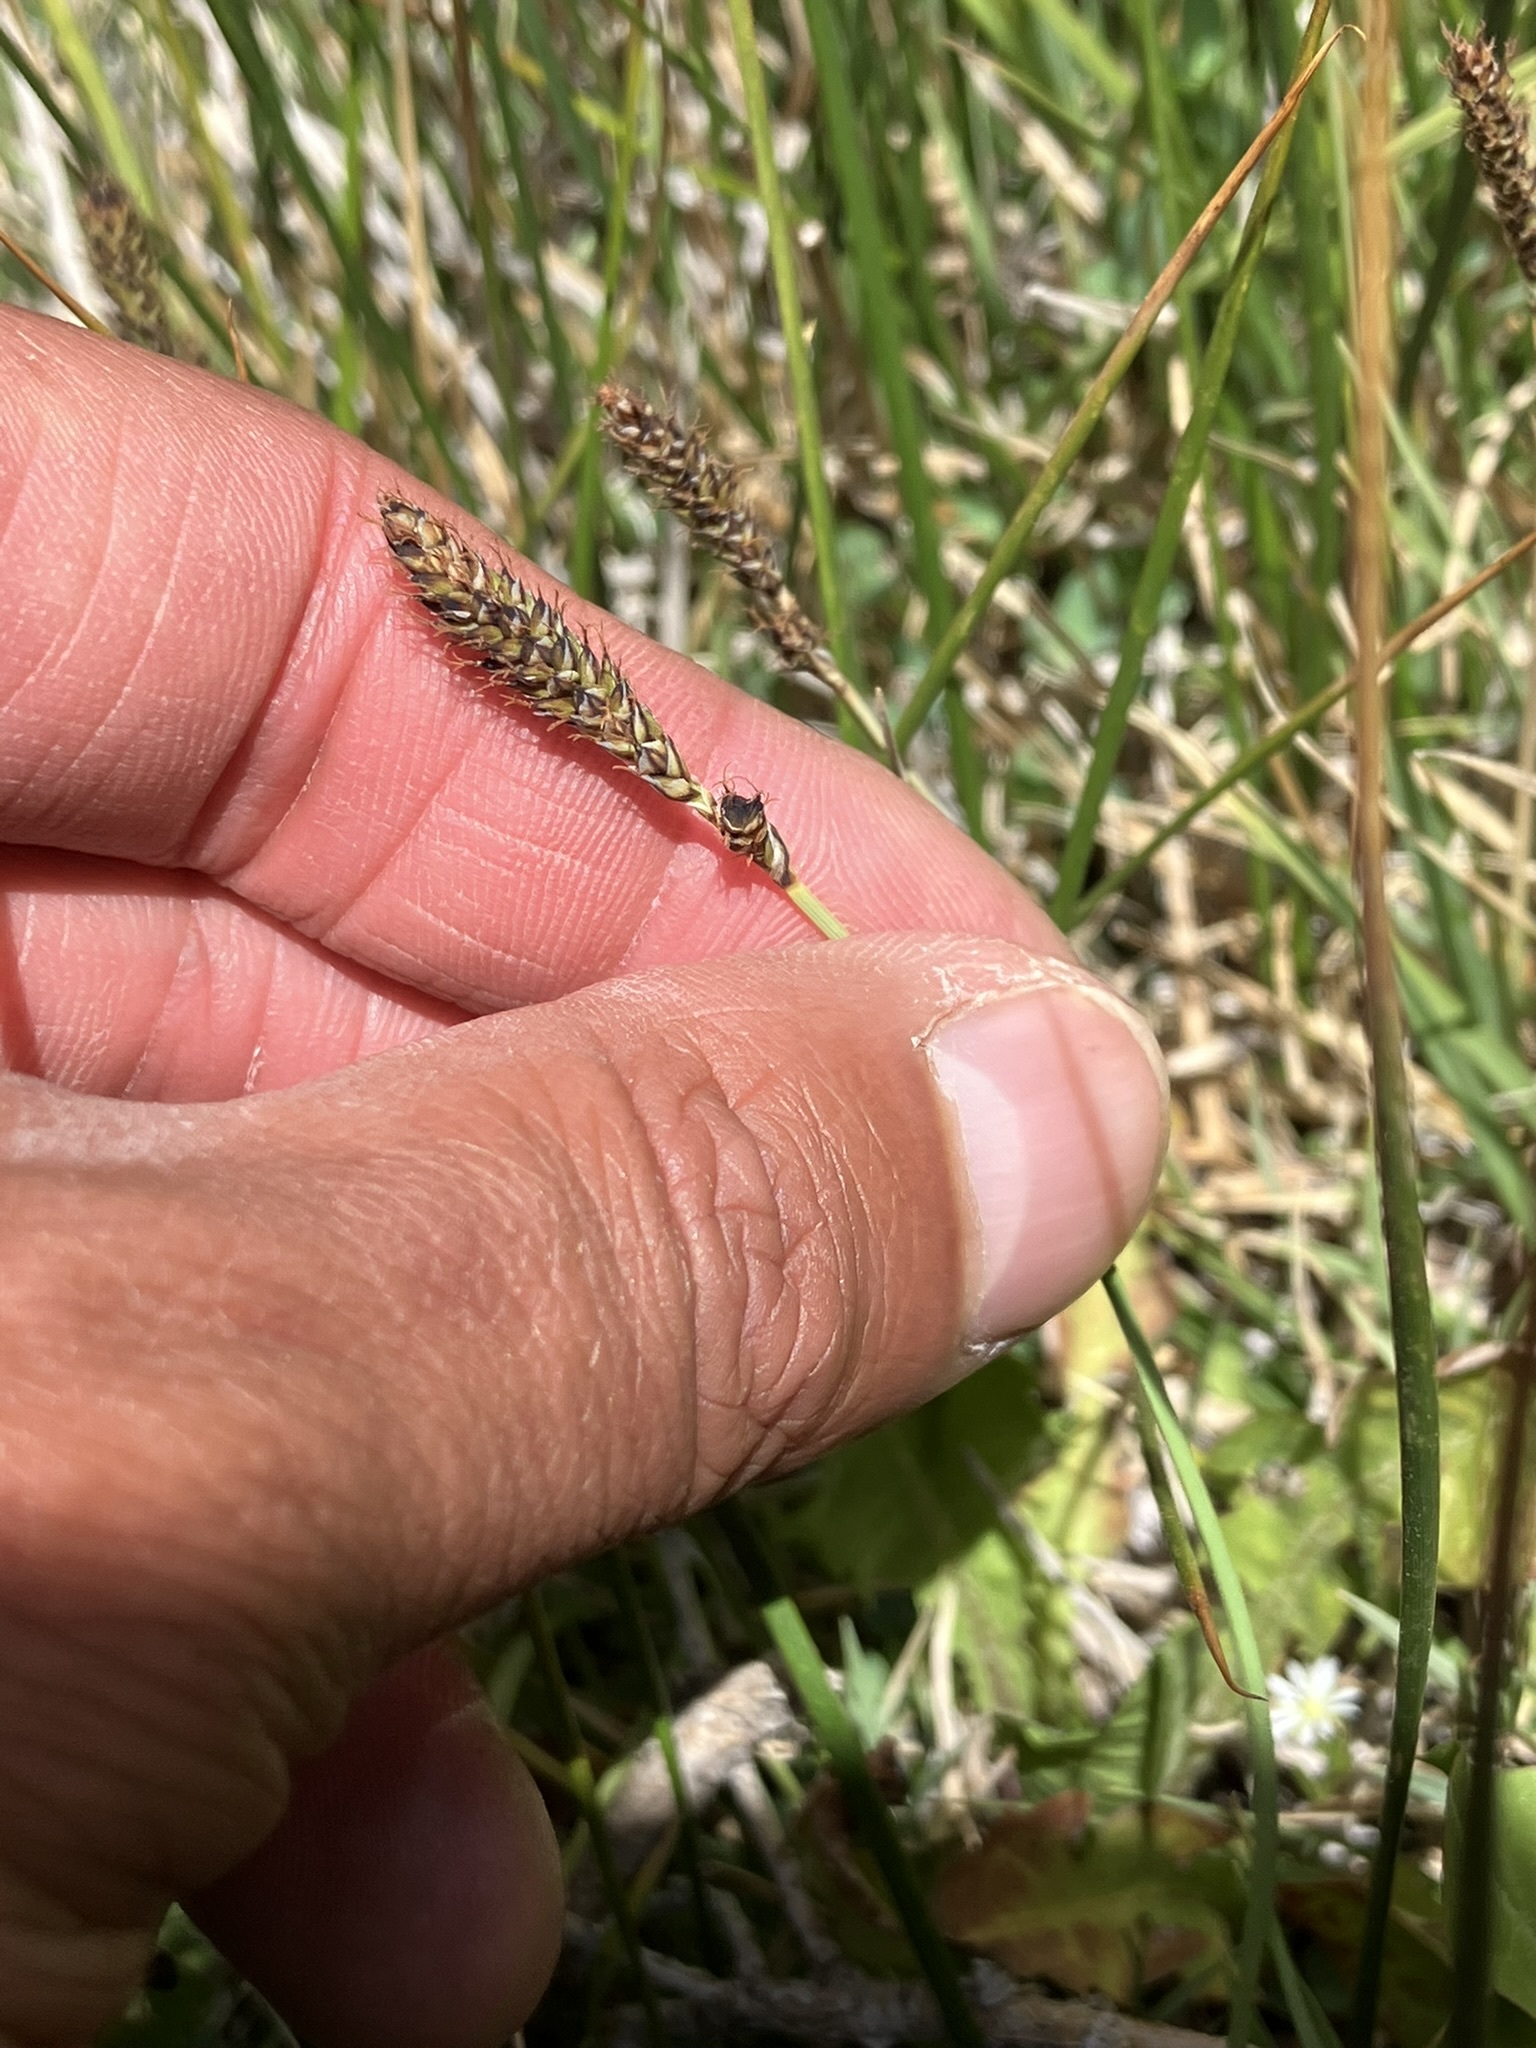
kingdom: Plantae
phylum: Tracheophyta
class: Liliopsida
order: Poales
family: Cyperaceae
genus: Carex
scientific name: Carex idahoa
